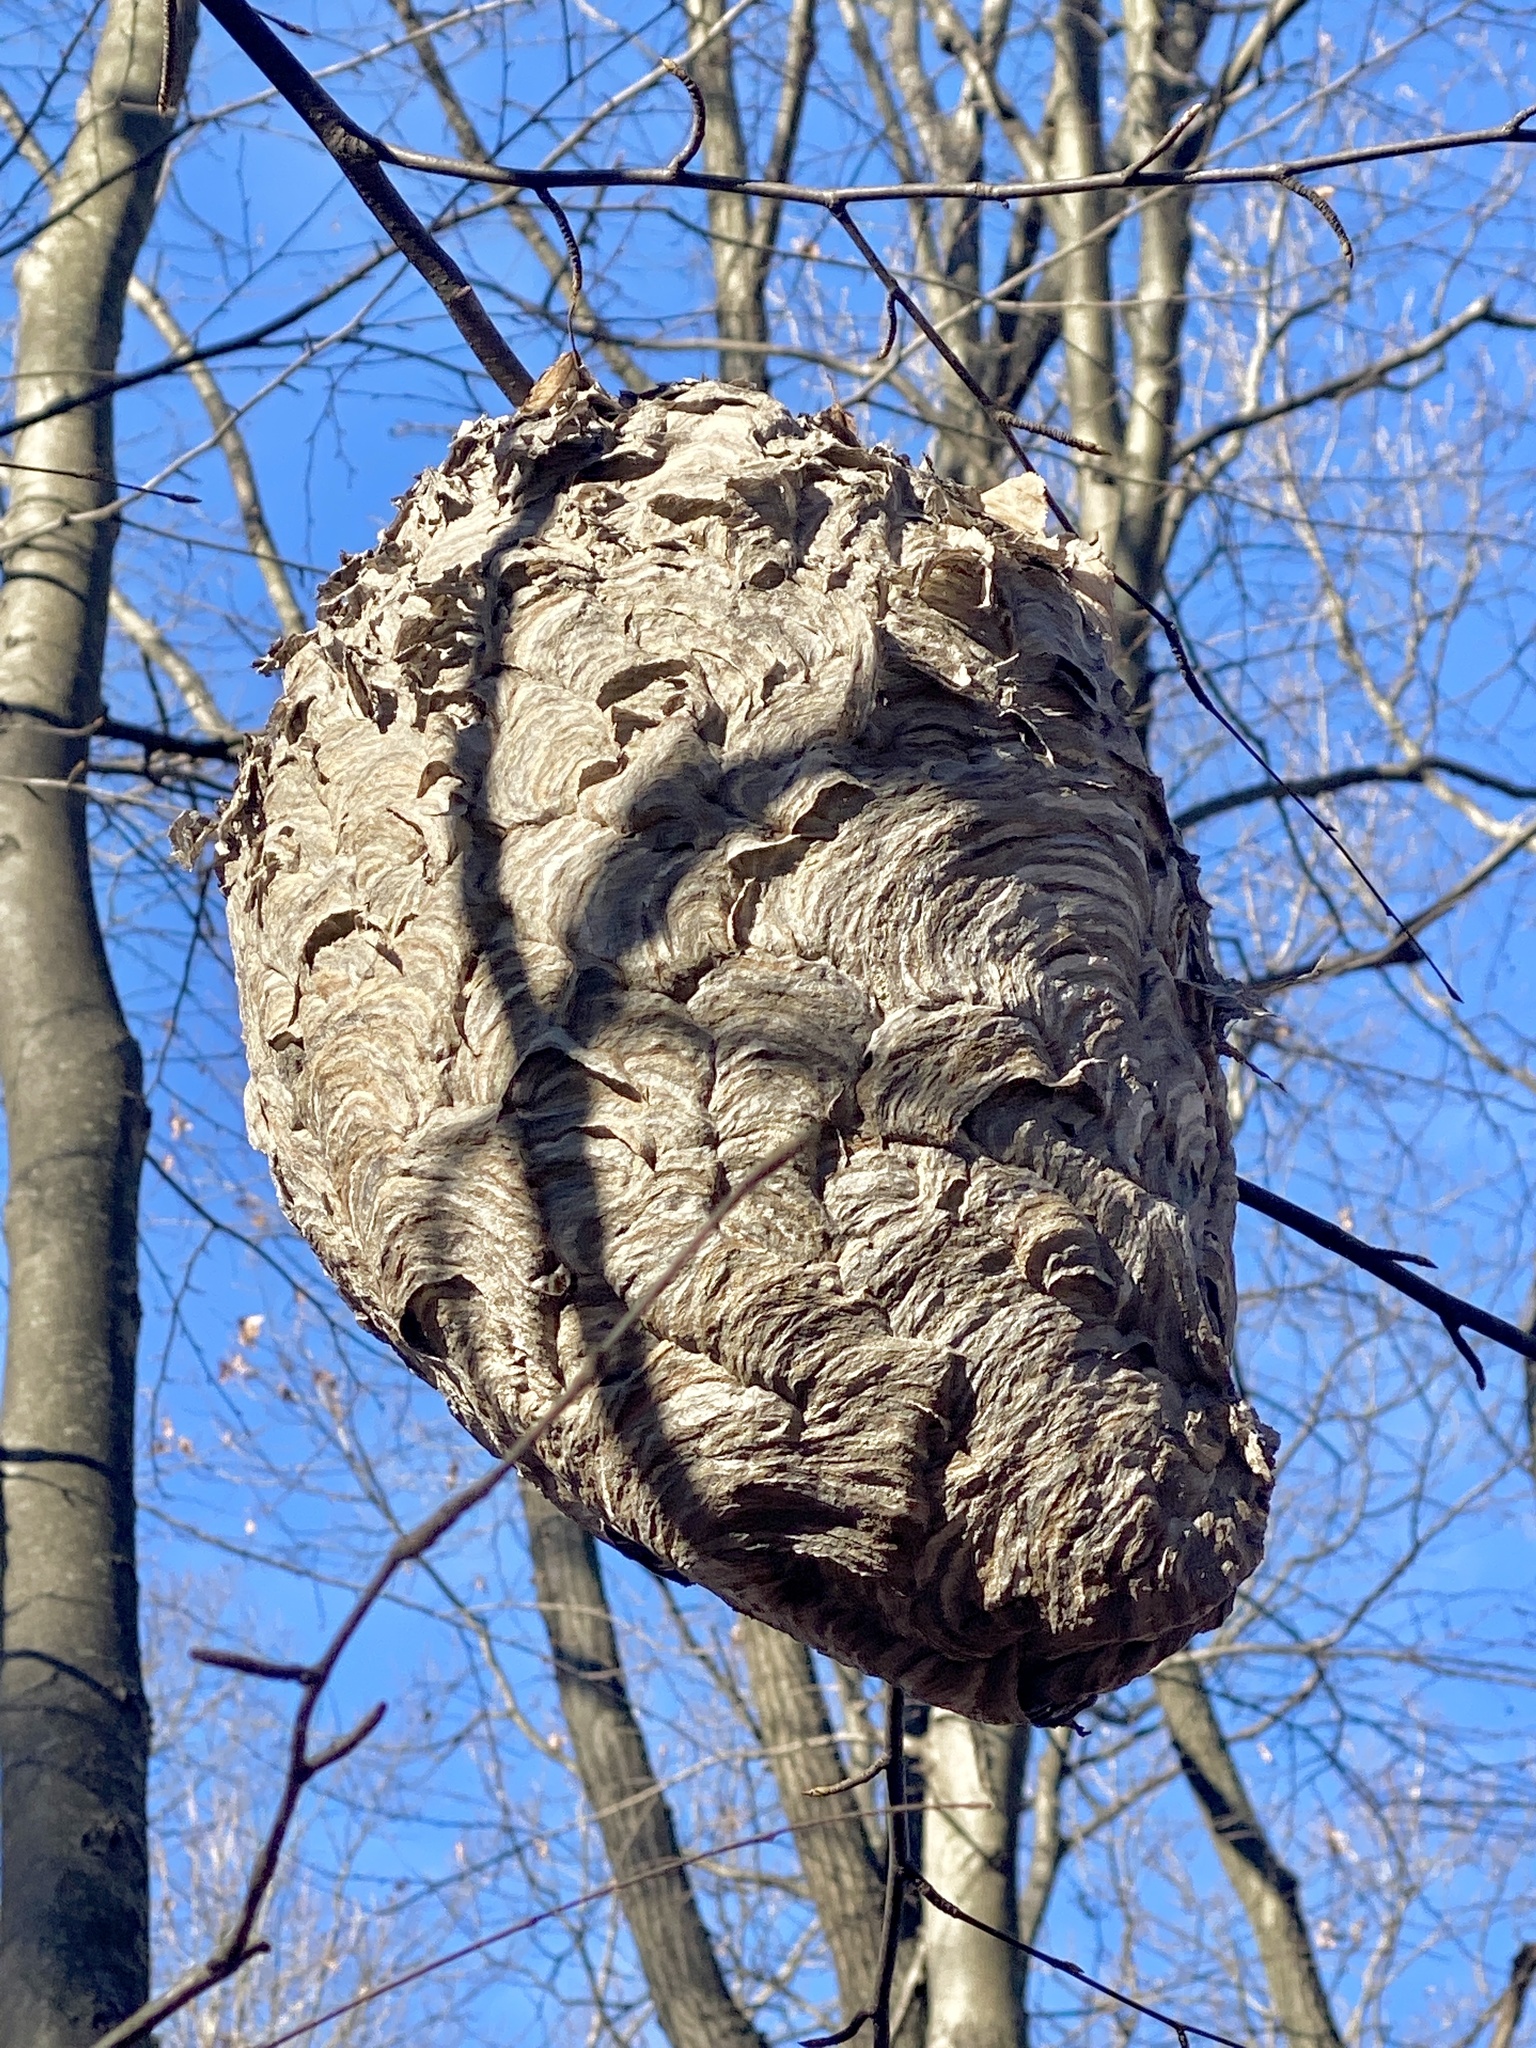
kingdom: Animalia
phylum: Arthropoda
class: Insecta
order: Hymenoptera
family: Vespidae
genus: Dolichovespula
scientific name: Dolichovespula maculata
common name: Bald-faced hornet
